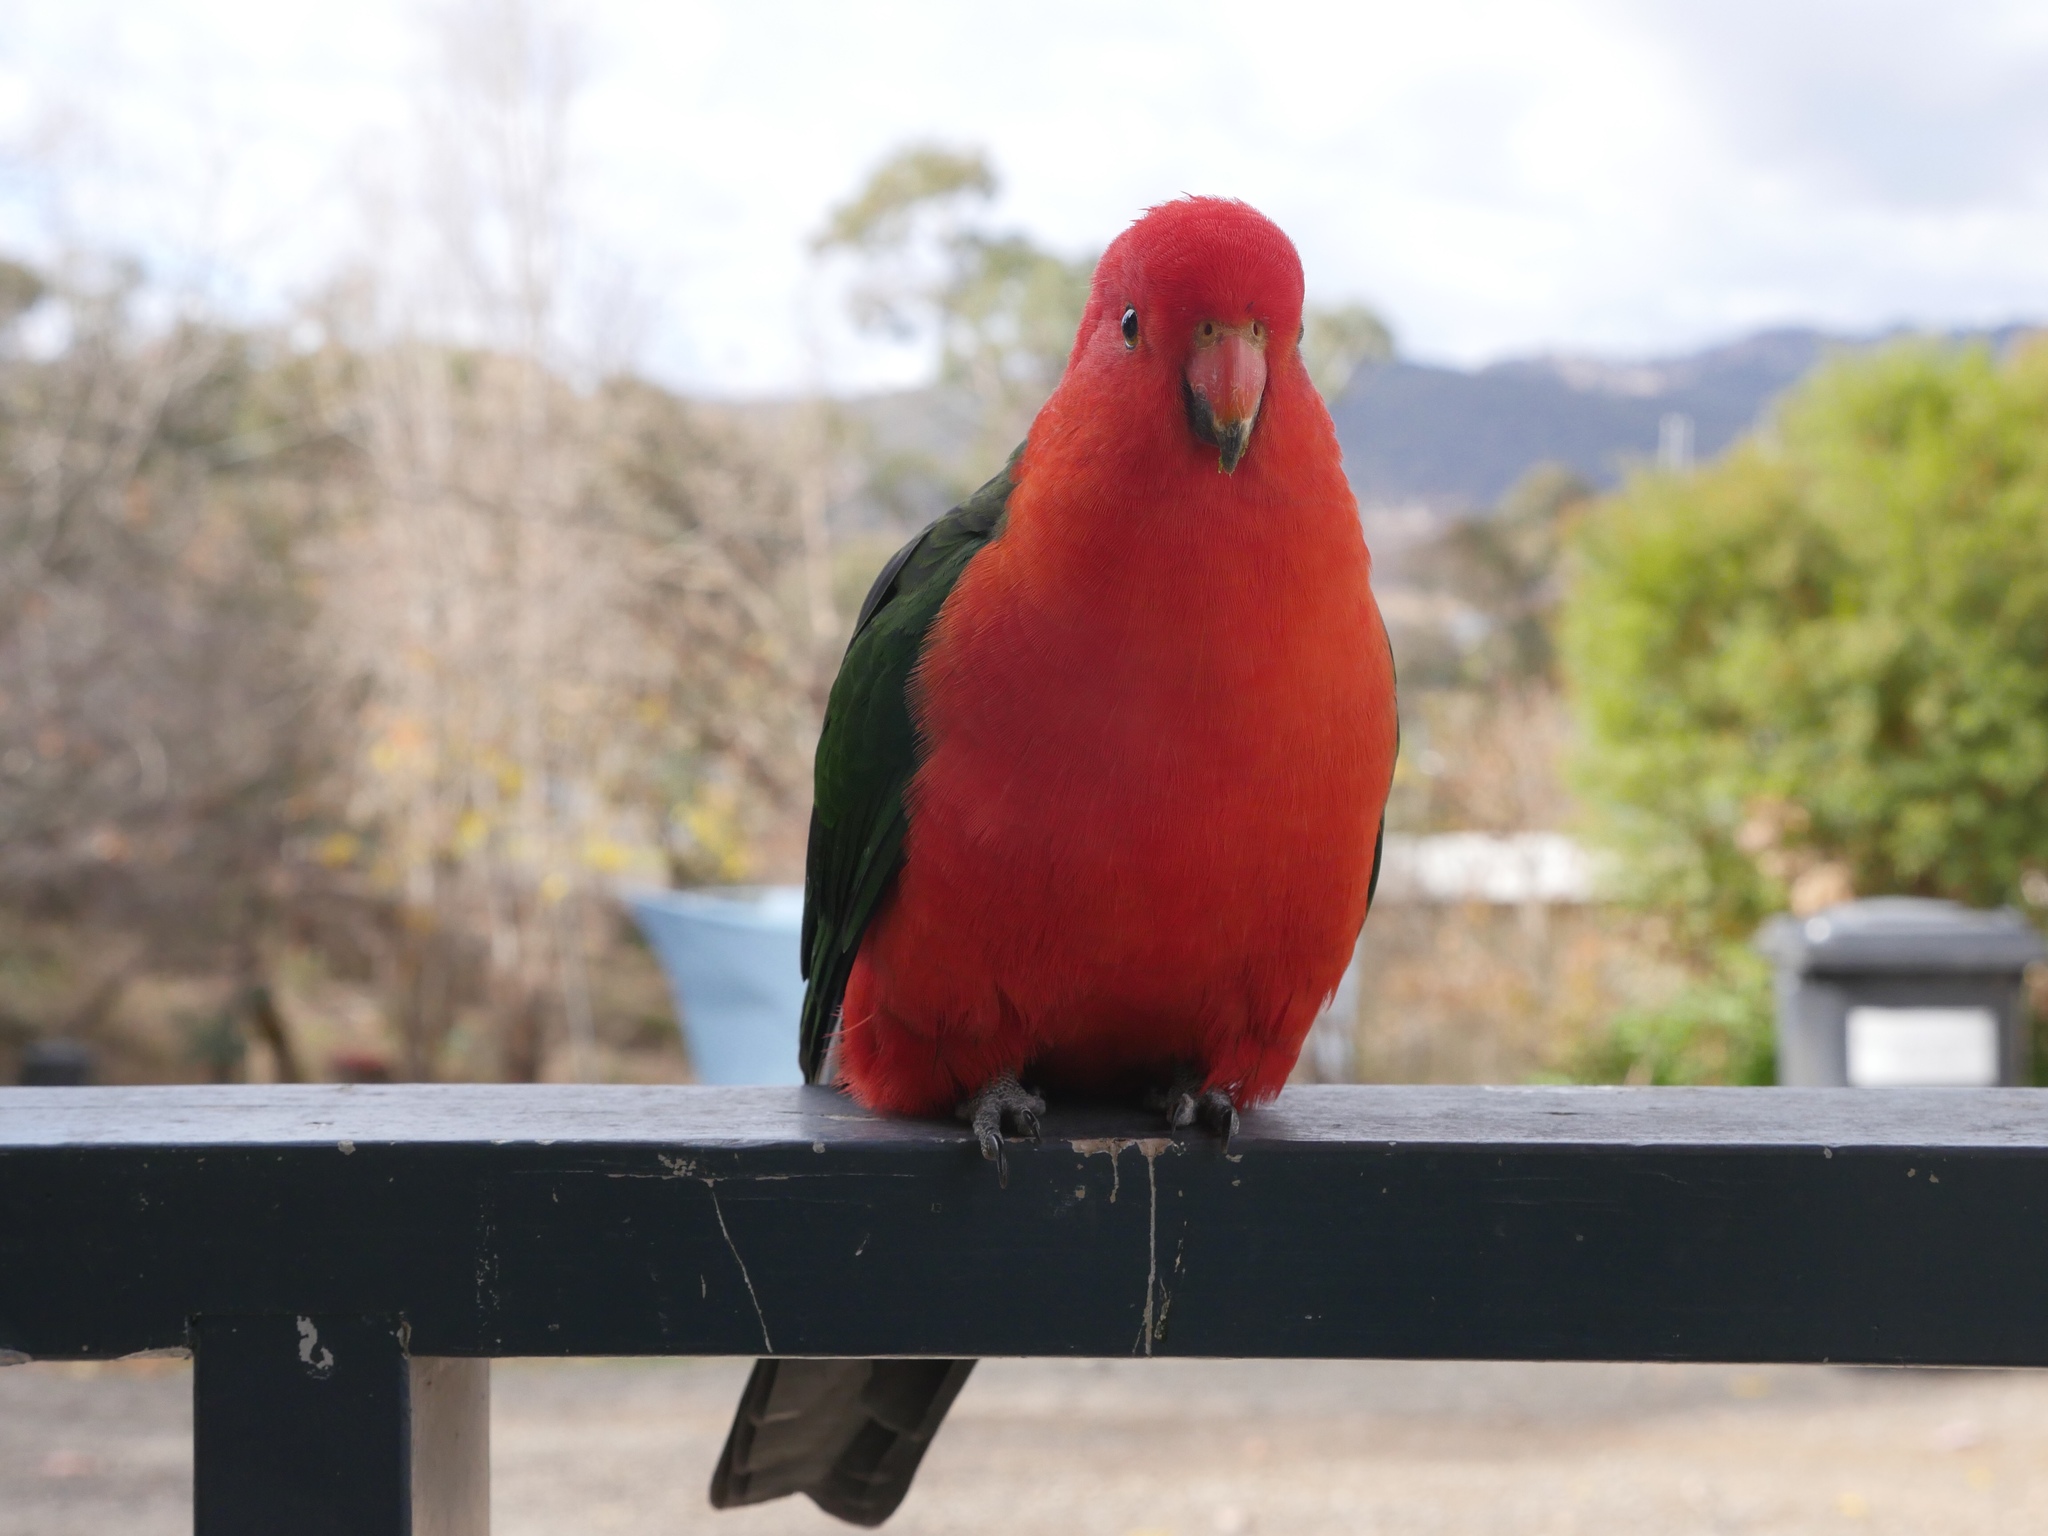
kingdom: Animalia
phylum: Chordata
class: Aves
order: Psittaciformes
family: Psittacidae
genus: Alisterus
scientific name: Alisterus scapularis
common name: Australian king parrot
